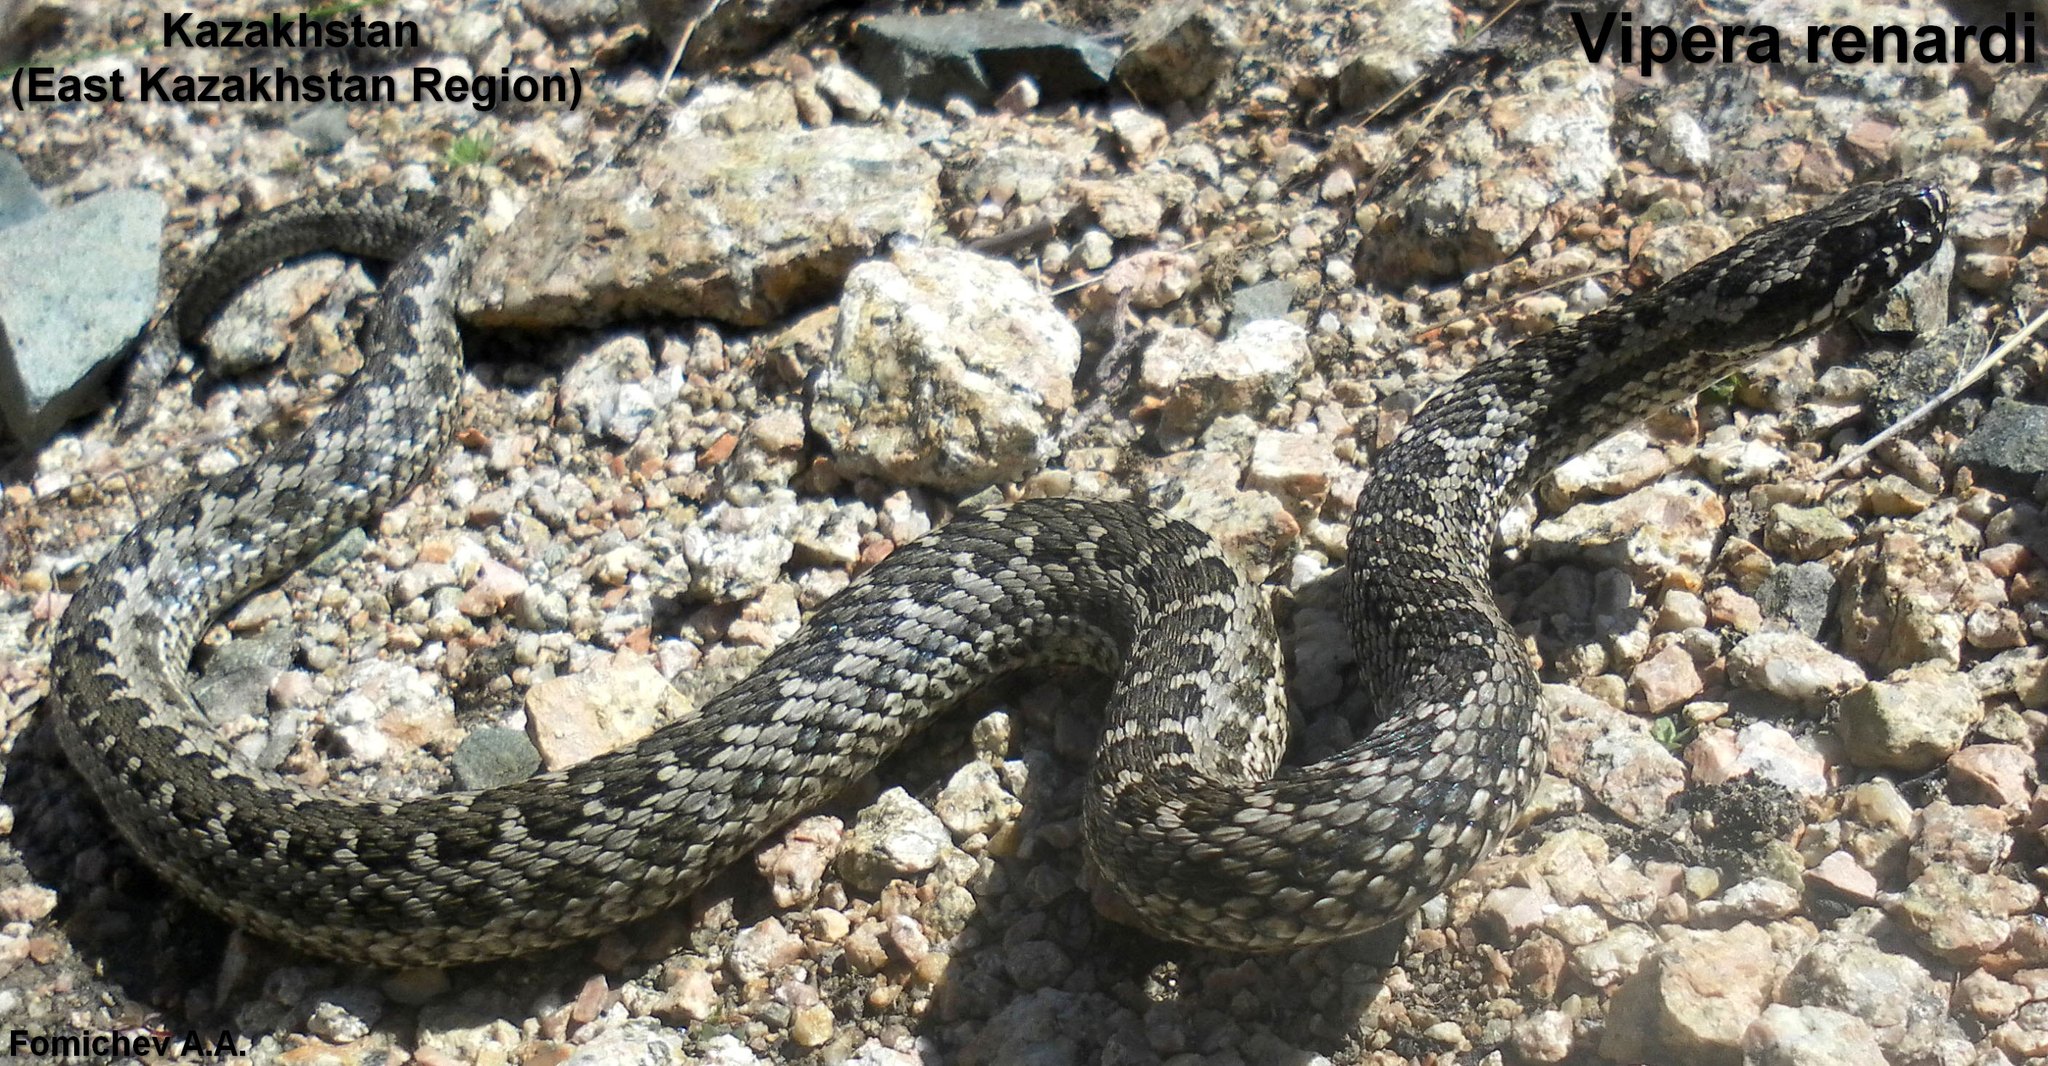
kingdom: Animalia
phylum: Chordata
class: Squamata
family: Viperidae
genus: Vipera
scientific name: Vipera renardi
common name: Eastern steppe viper
